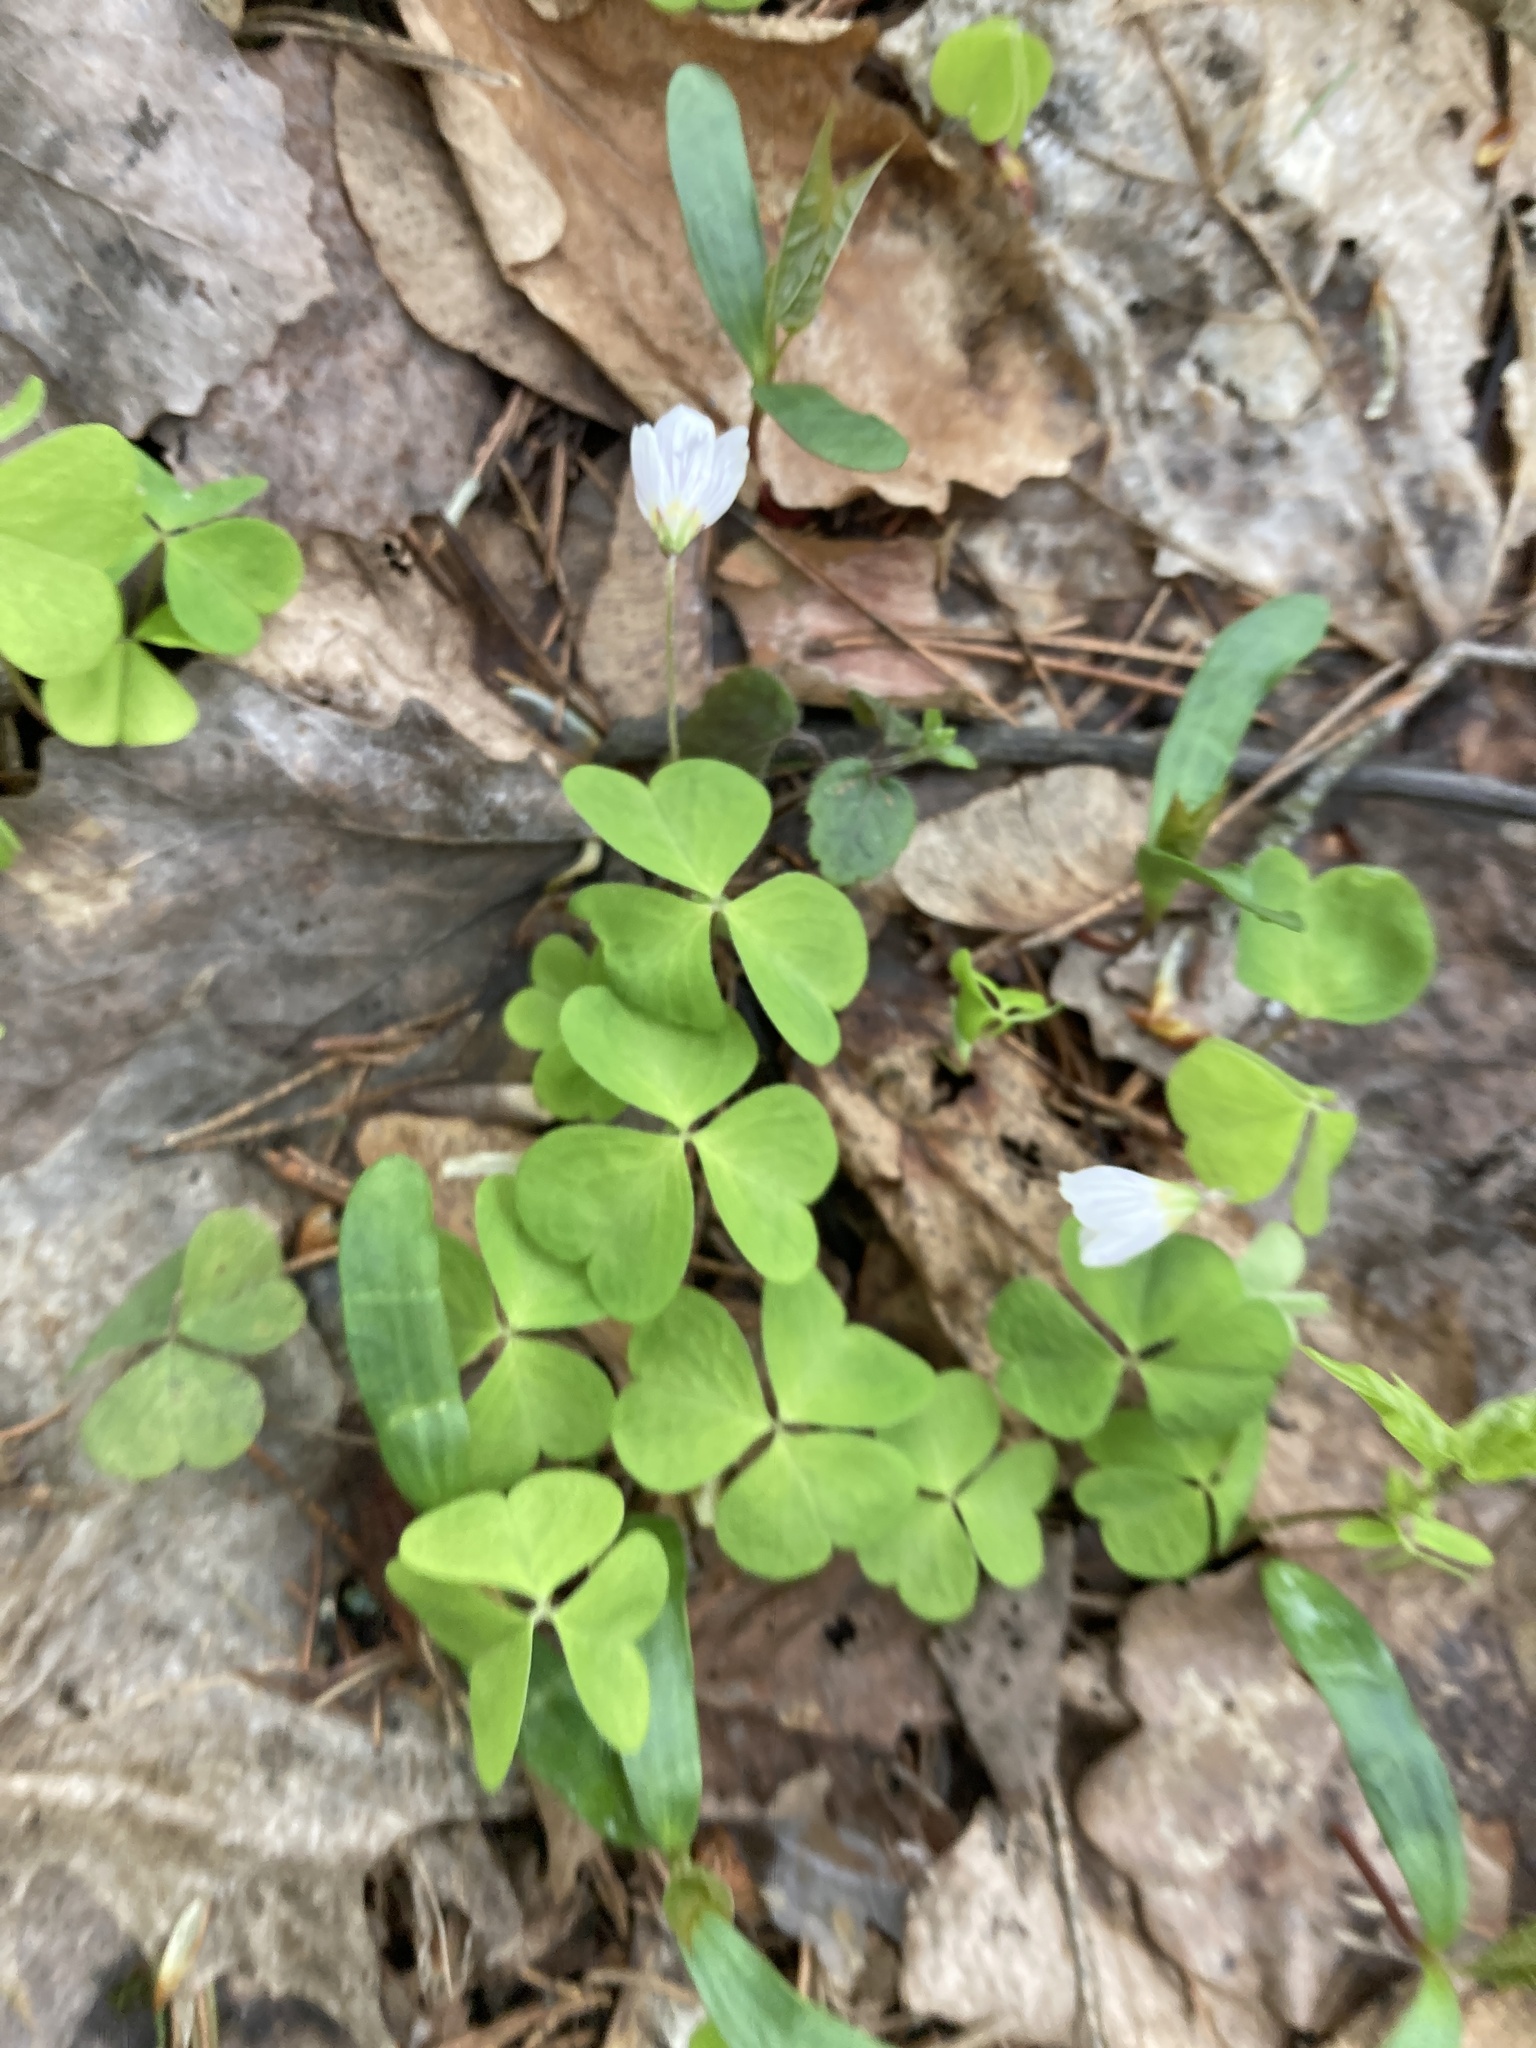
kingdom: Plantae
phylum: Tracheophyta
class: Magnoliopsida
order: Oxalidales
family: Oxalidaceae
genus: Oxalis
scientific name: Oxalis acetosella
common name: Wood-sorrel
